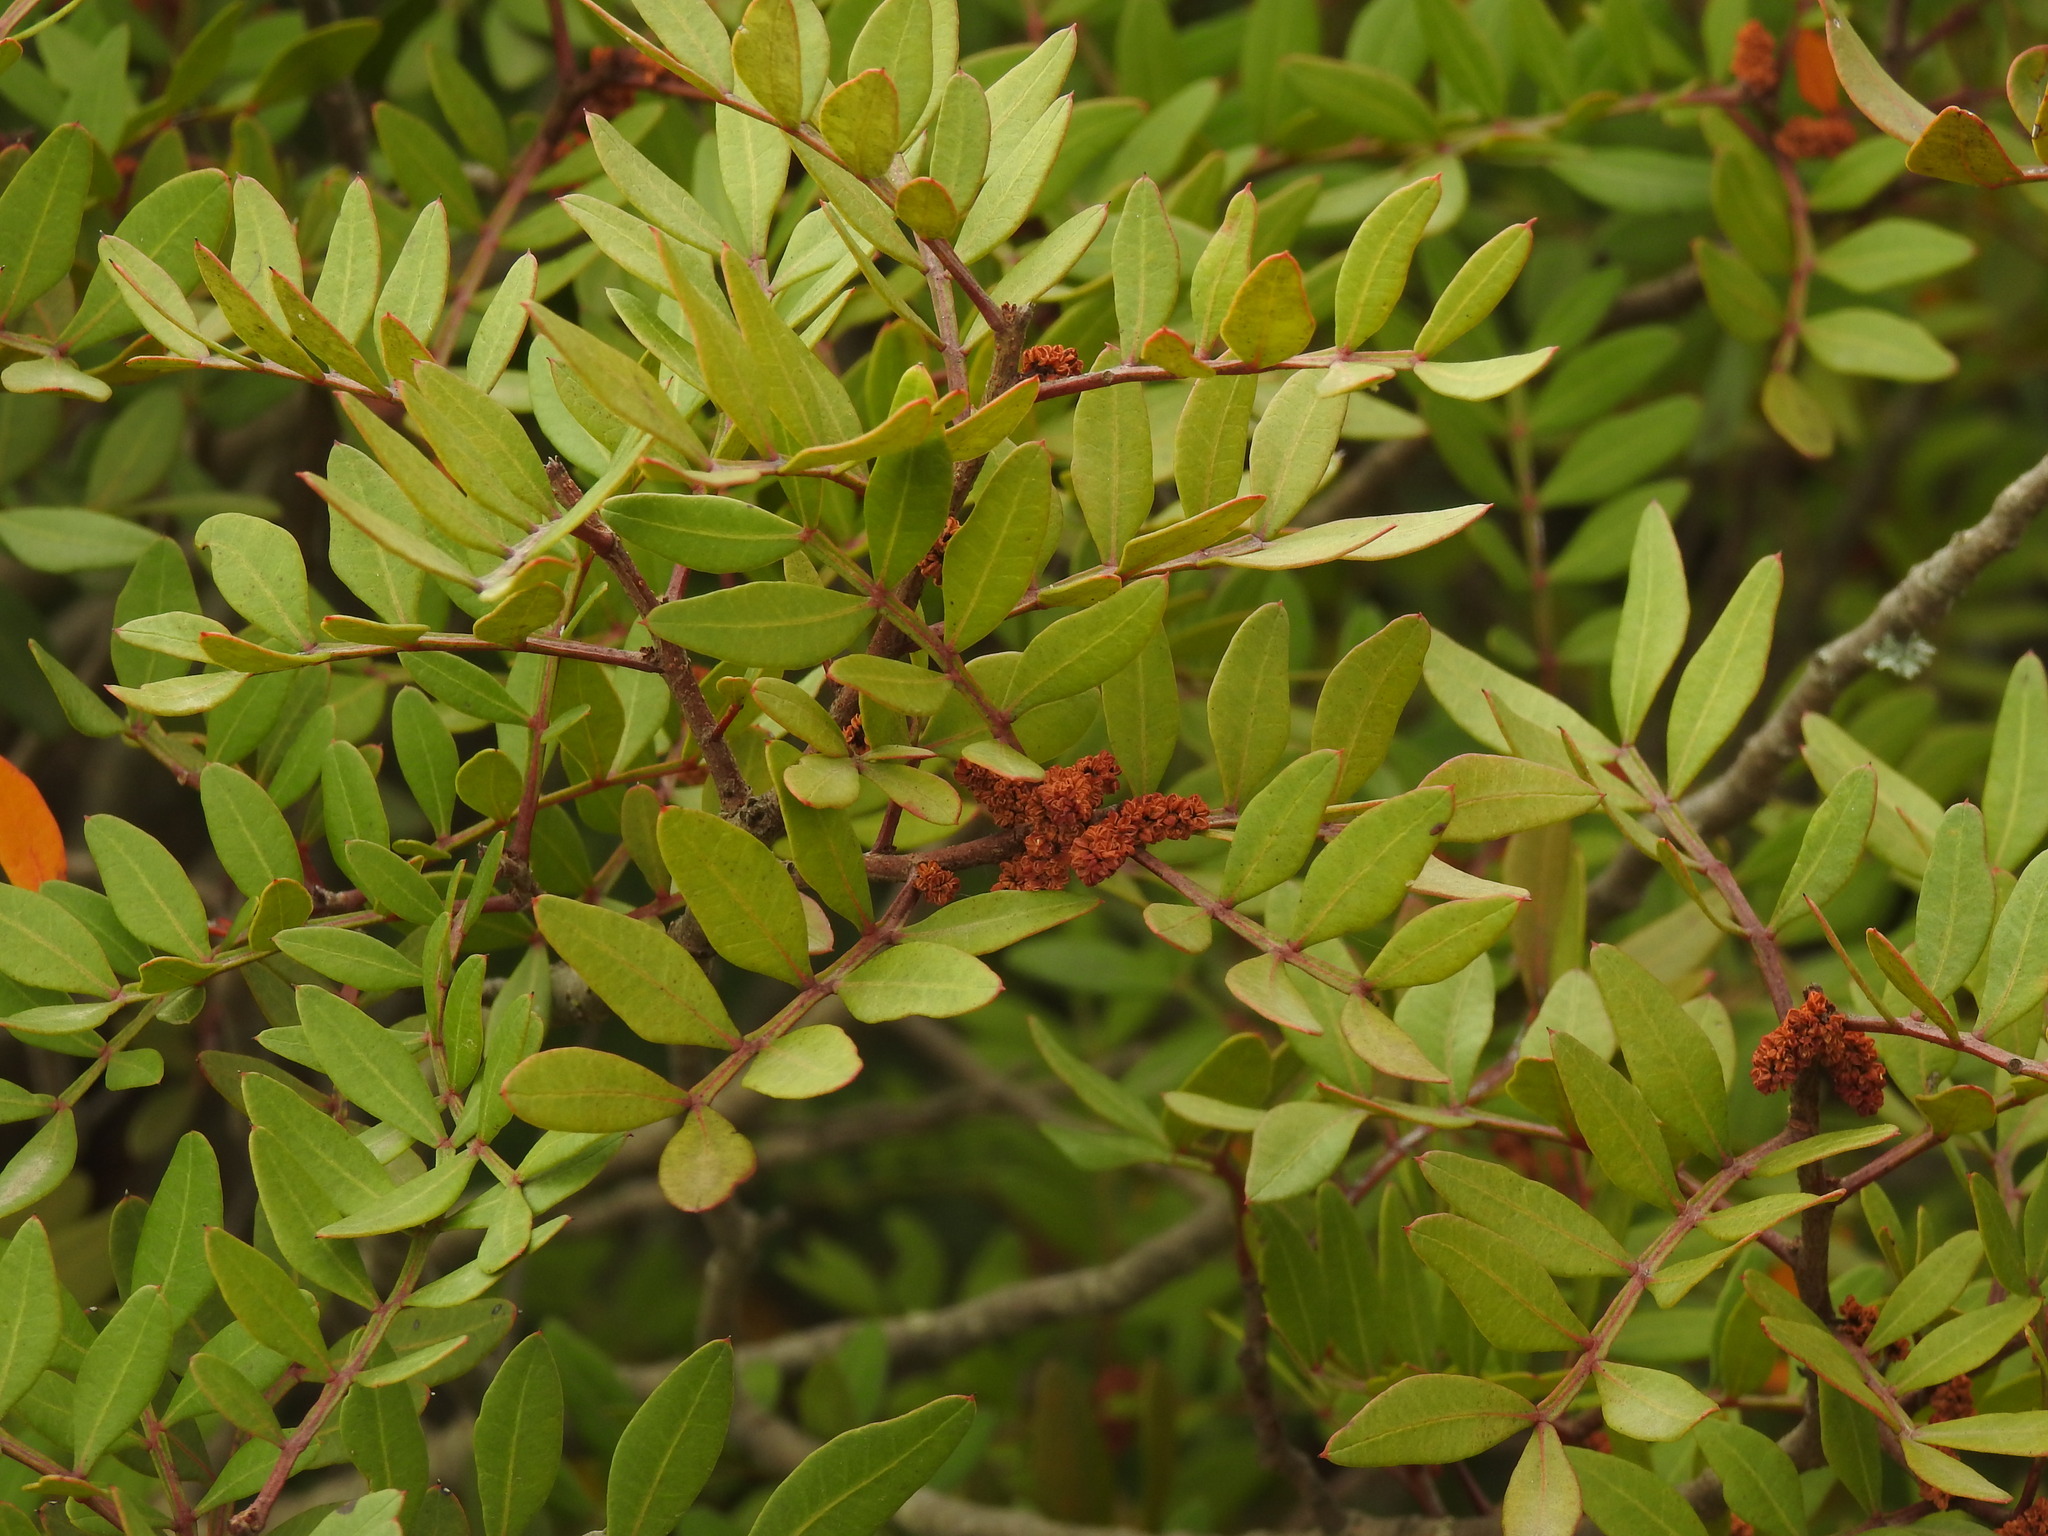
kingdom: Plantae
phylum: Tracheophyta
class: Magnoliopsida
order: Sapindales
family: Anacardiaceae
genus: Pistacia
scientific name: Pistacia lentiscus
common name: Lentisk
